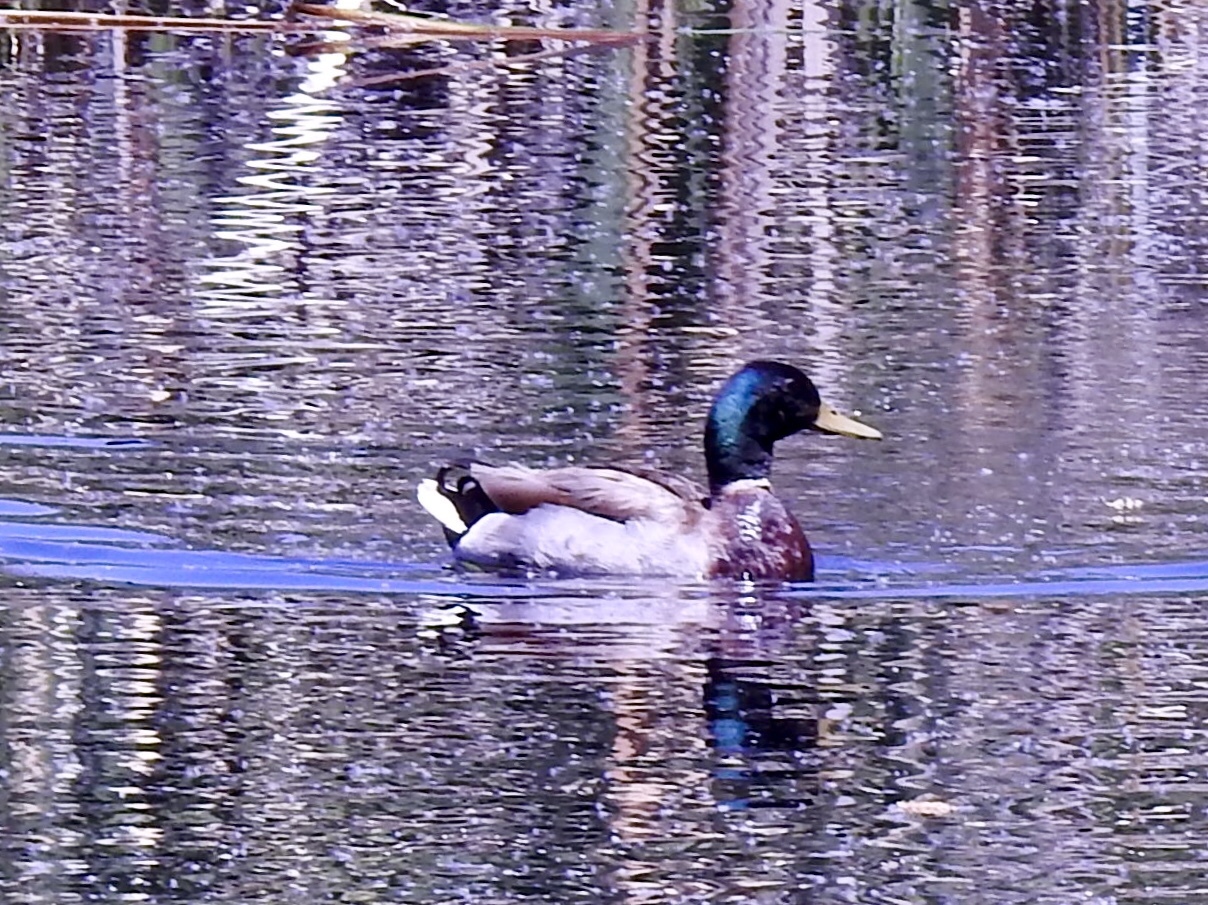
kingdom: Animalia
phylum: Chordata
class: Aves
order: Anseriformes
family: Anatidae
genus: Anas
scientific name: Anas platyrhynchos
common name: Mallard
